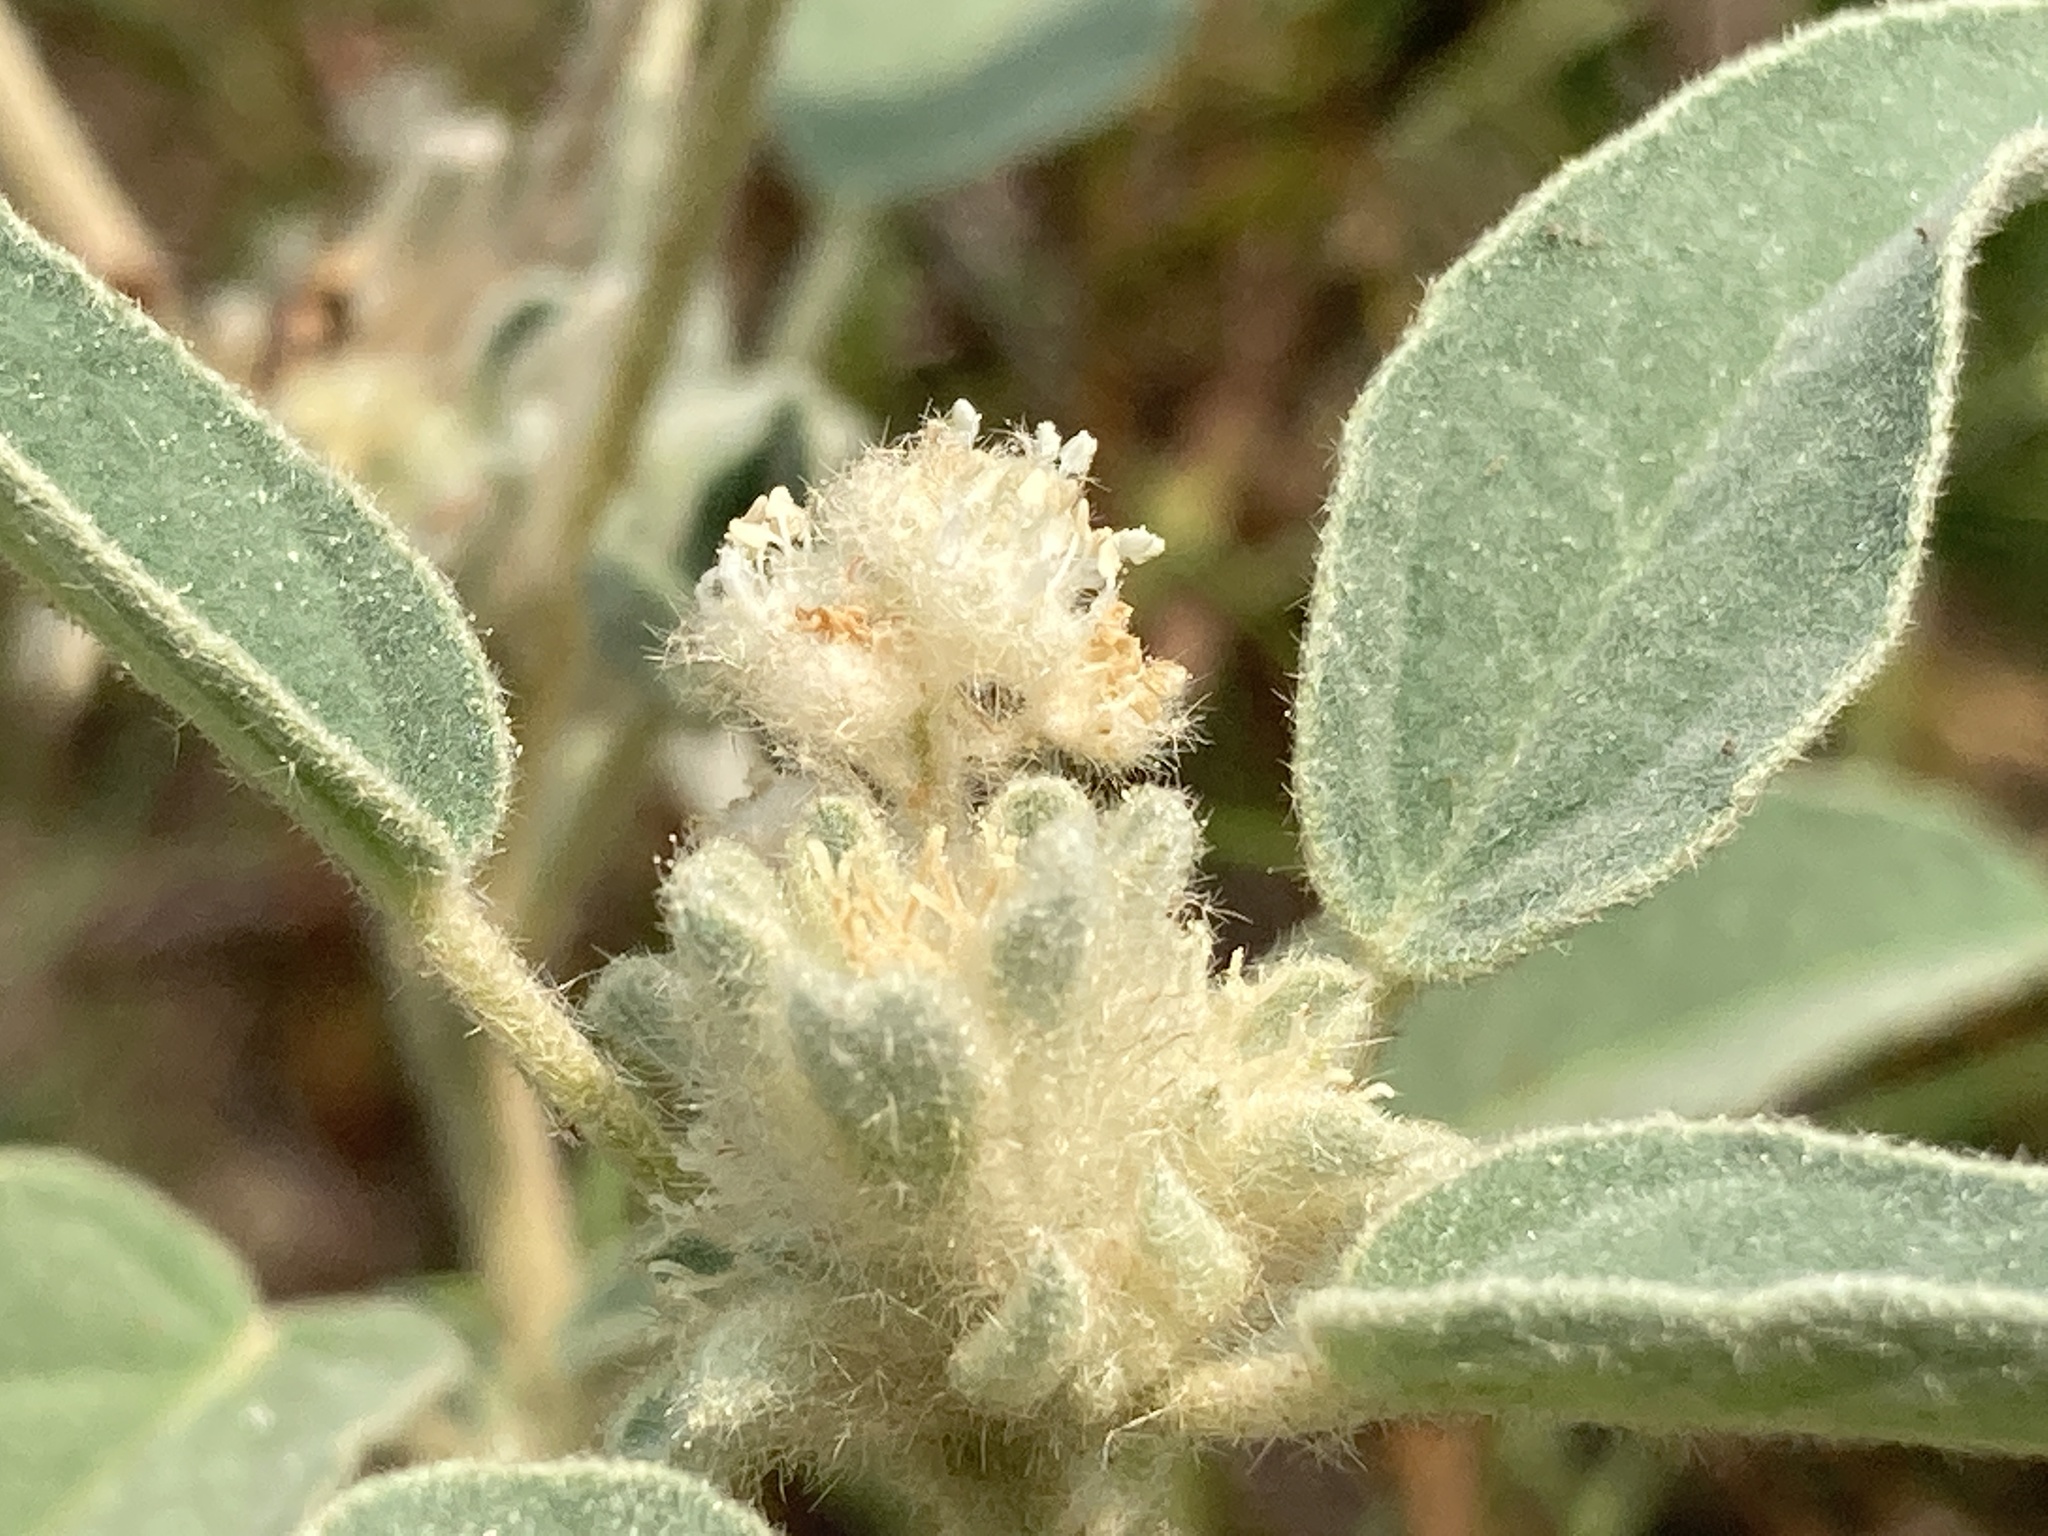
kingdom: Plantae
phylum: Tracheophyta
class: Magnoliopsida
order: Malpighiales
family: Euphorbiaceae
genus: Croton
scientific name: Croton capitatus
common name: Woolly croton
